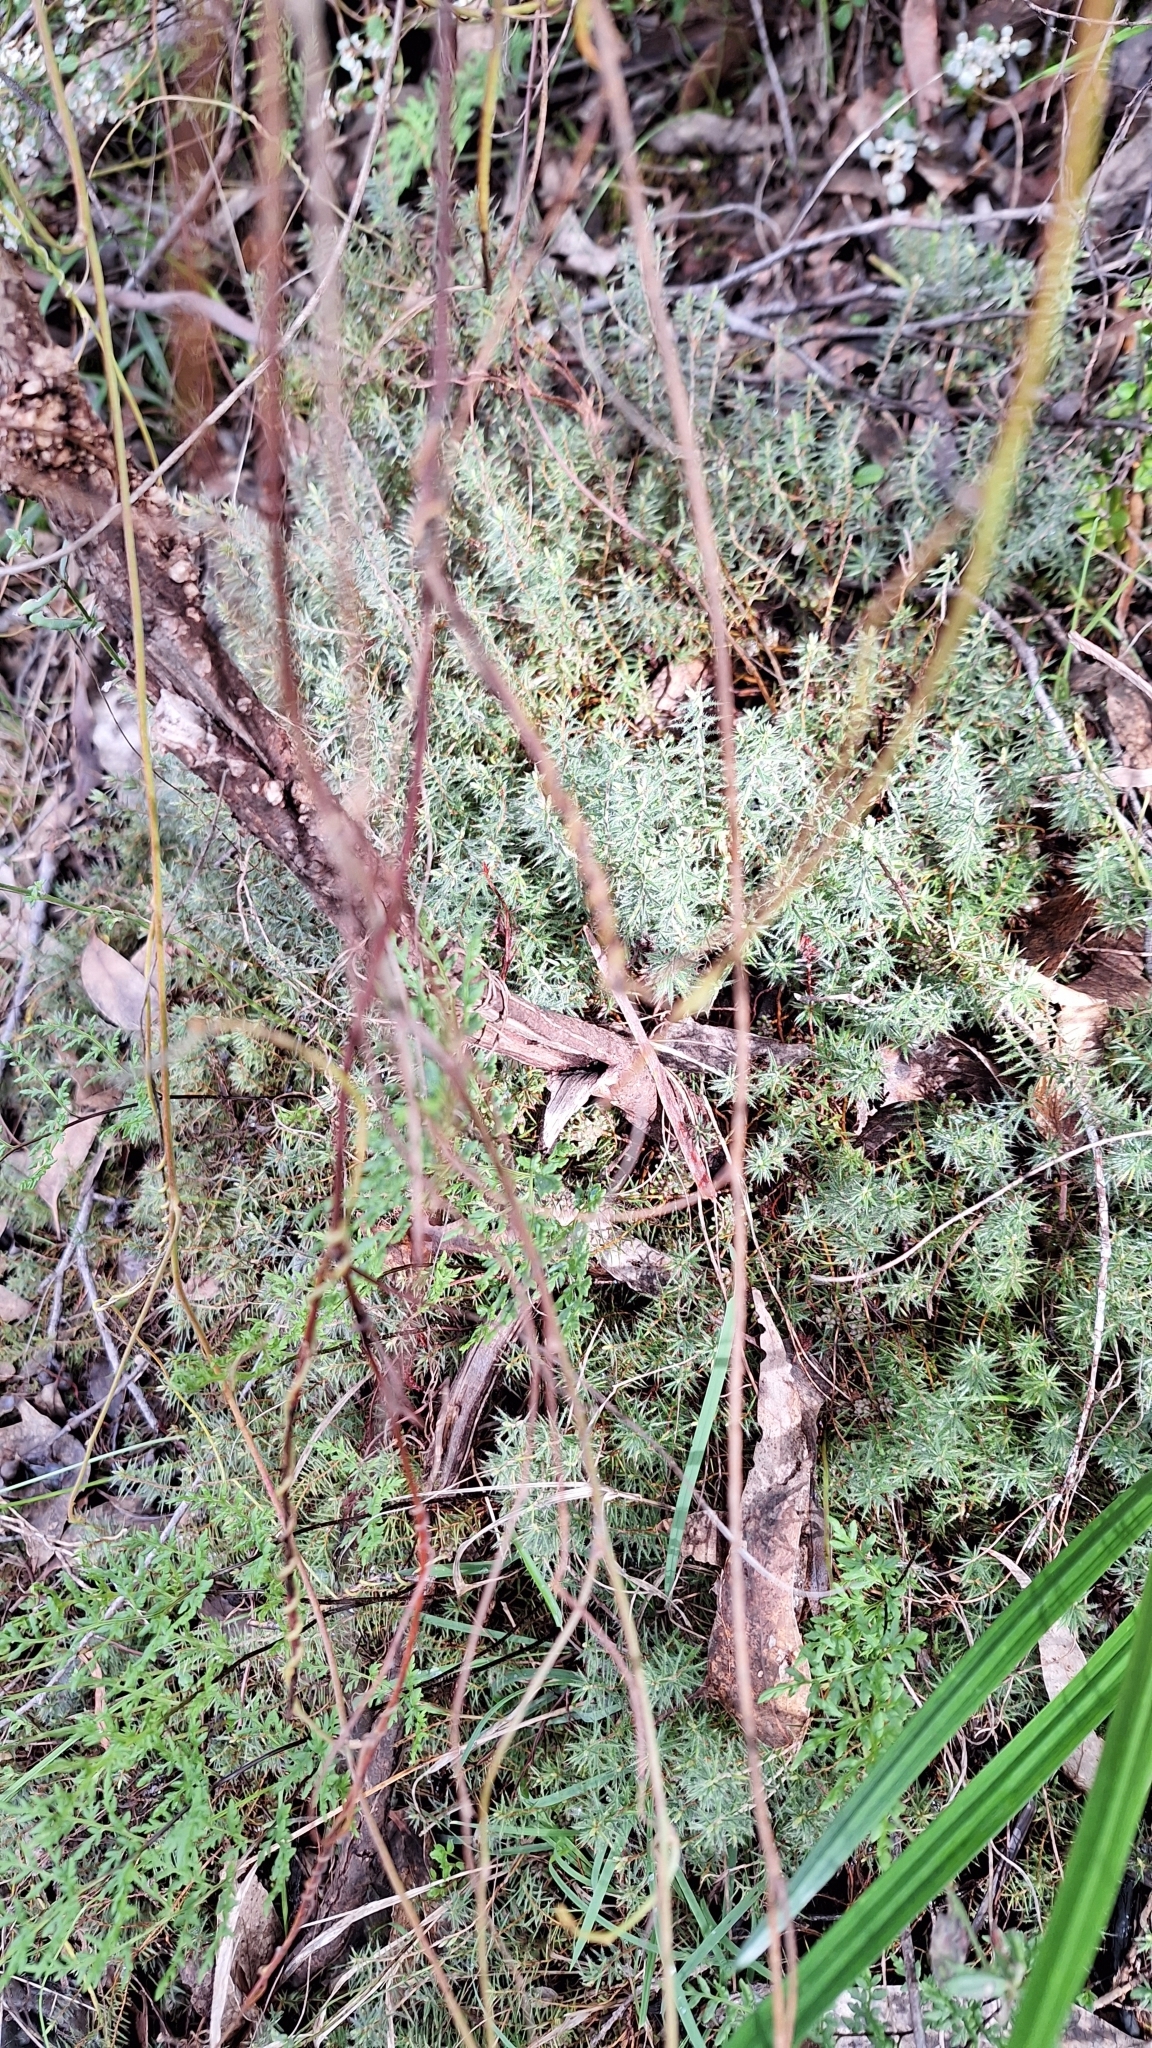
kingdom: Plantae
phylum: Tracheophyta
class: Magnoliopsida
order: Ericales
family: Ericaceae
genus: Acrotriche
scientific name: Acrotriche serrulata
